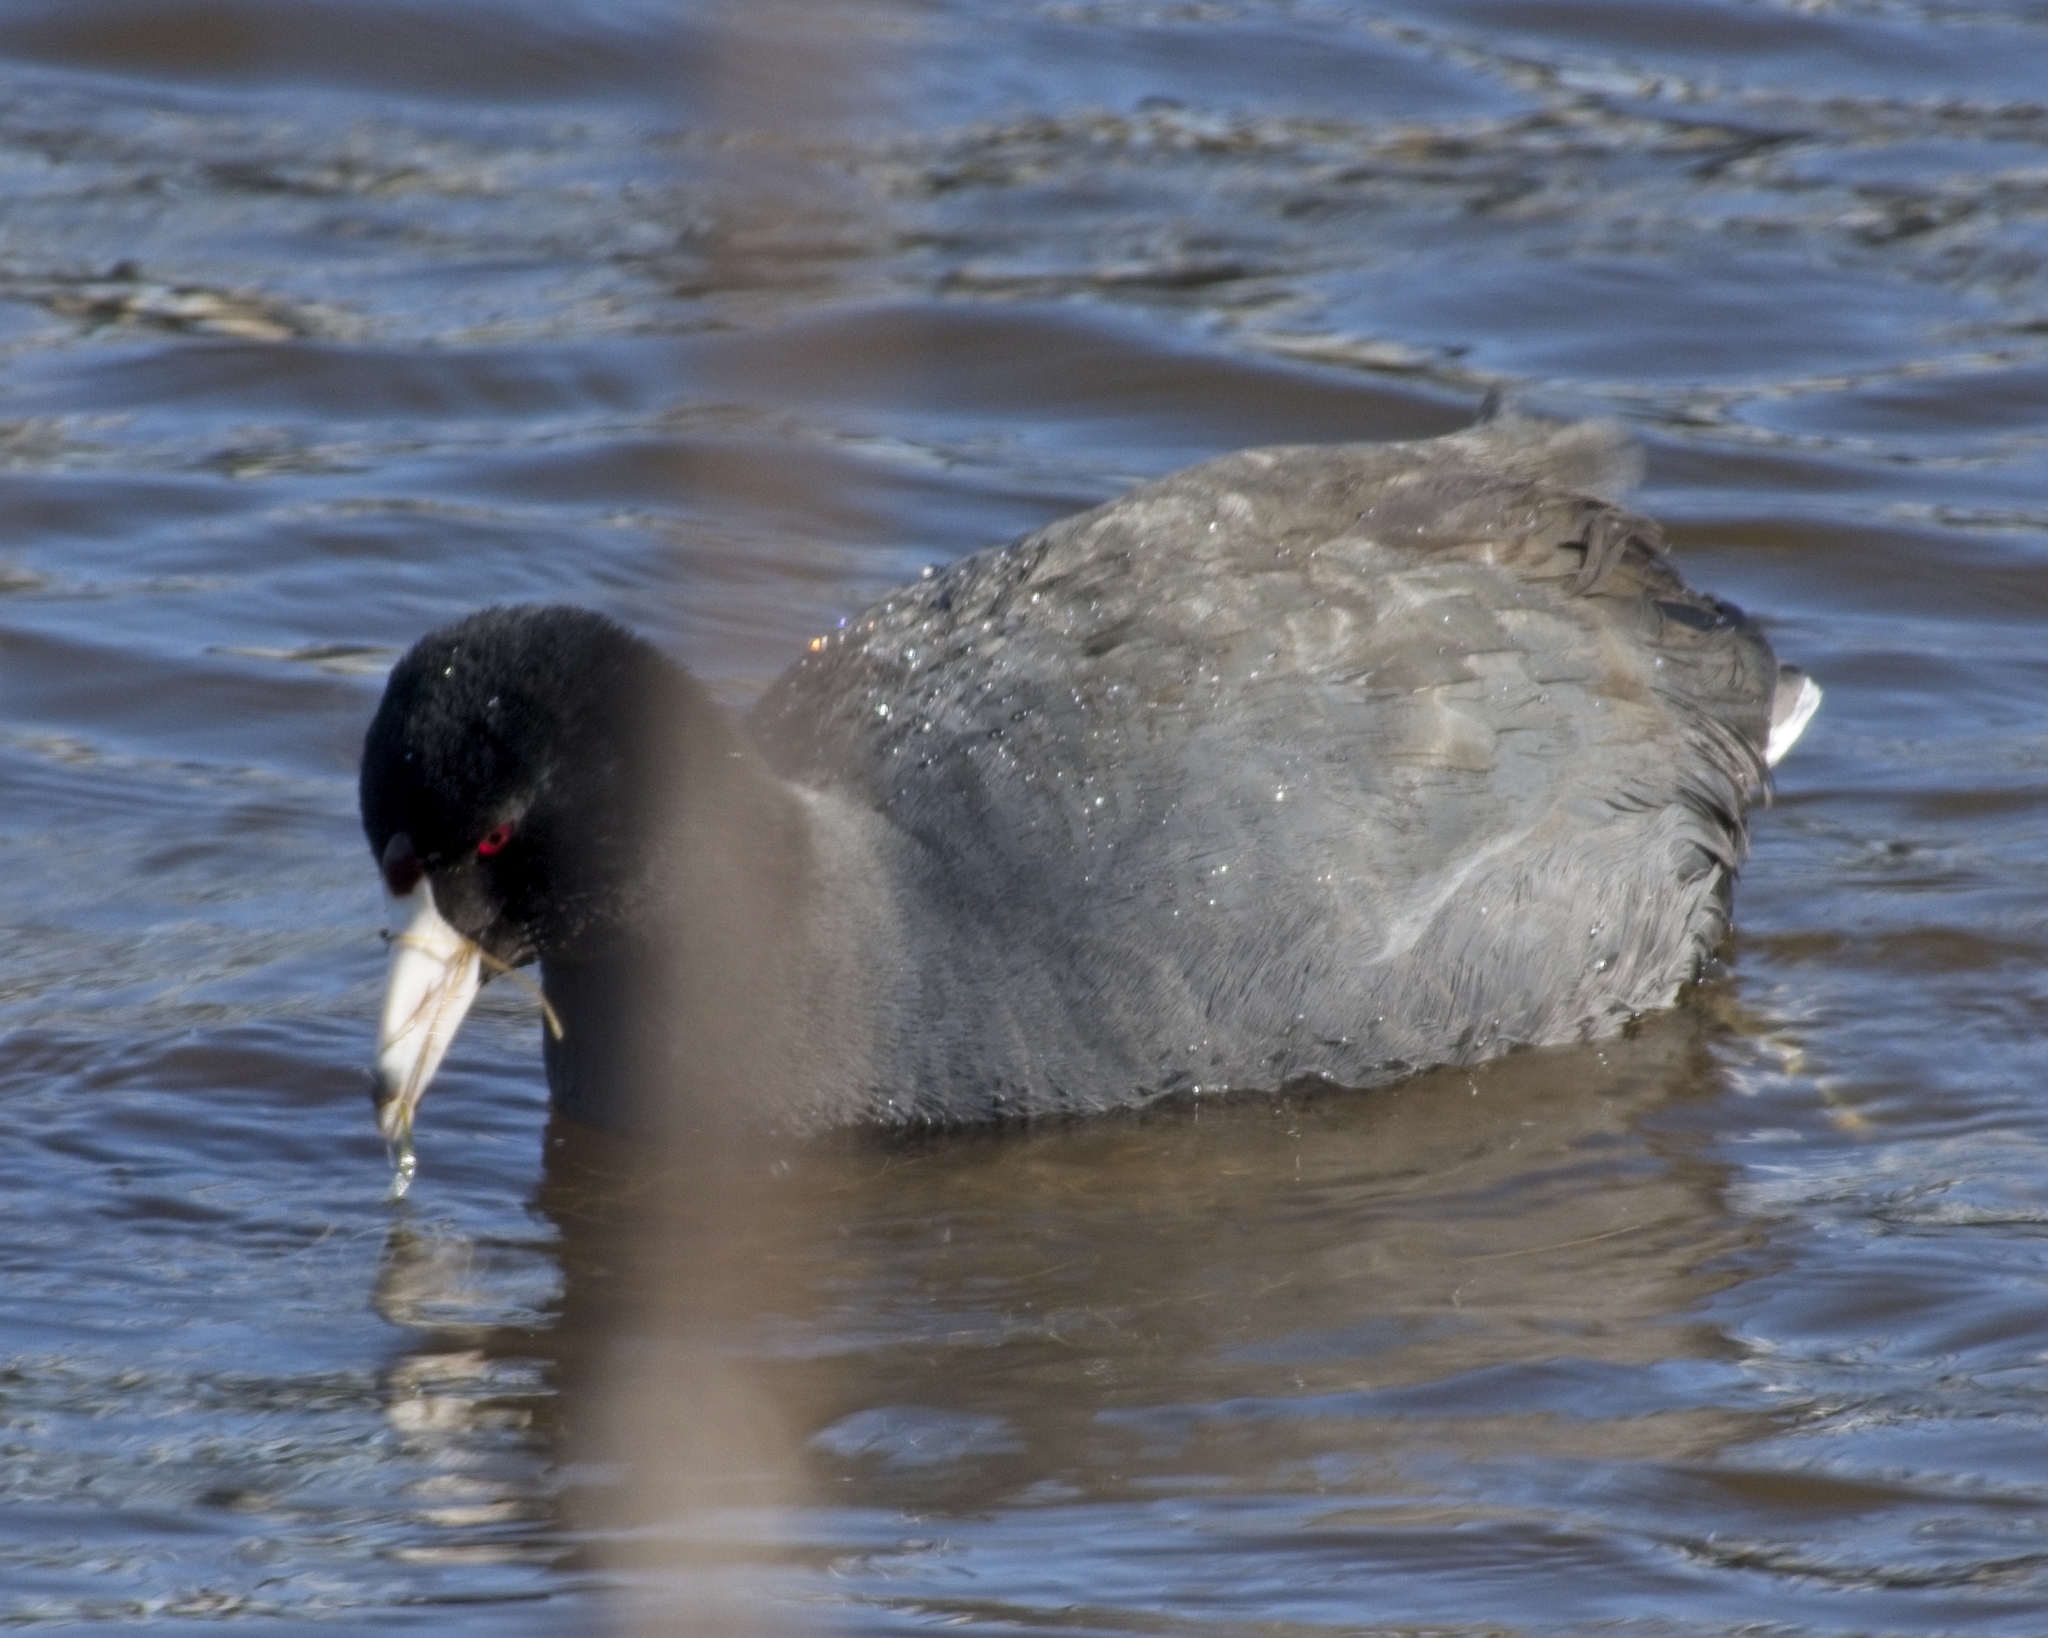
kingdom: Animalia
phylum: Chordata
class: Aves
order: Gruiformes
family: Rallidae
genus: Fulica
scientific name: Fulica americana
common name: American coot
